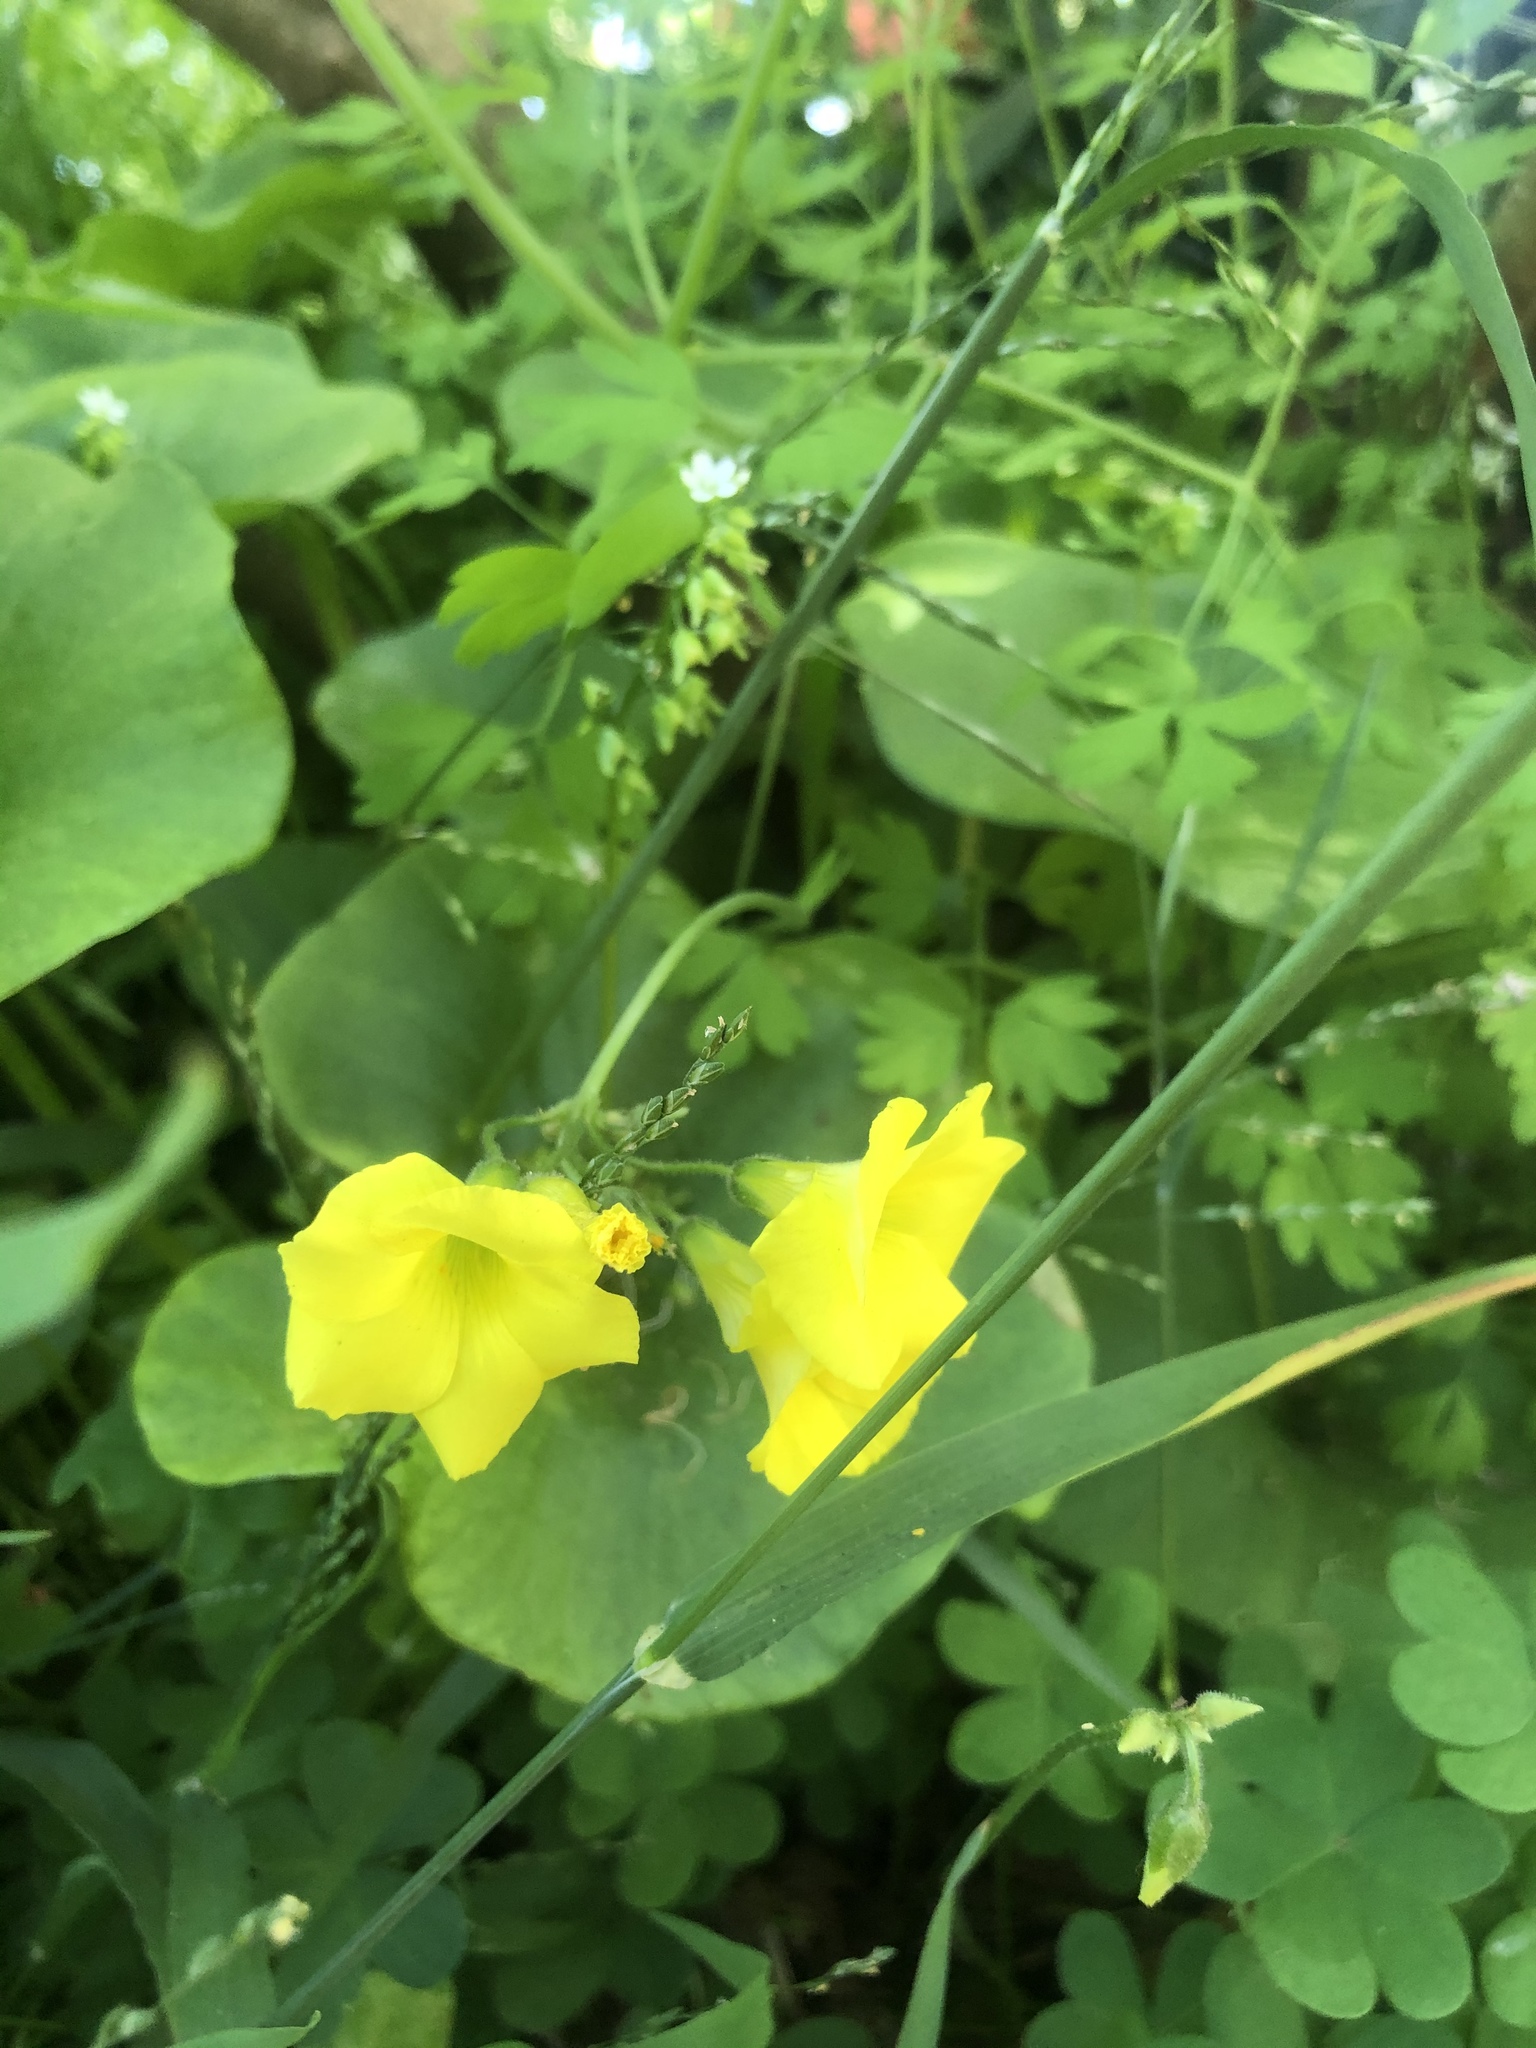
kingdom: Plantae
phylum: Tracheophyta
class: Magnoliopsida
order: Oxalidales
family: Oxalidaceae
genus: Oxalis
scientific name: Oxalis pes-caprae
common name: Bermuda-buttercup
